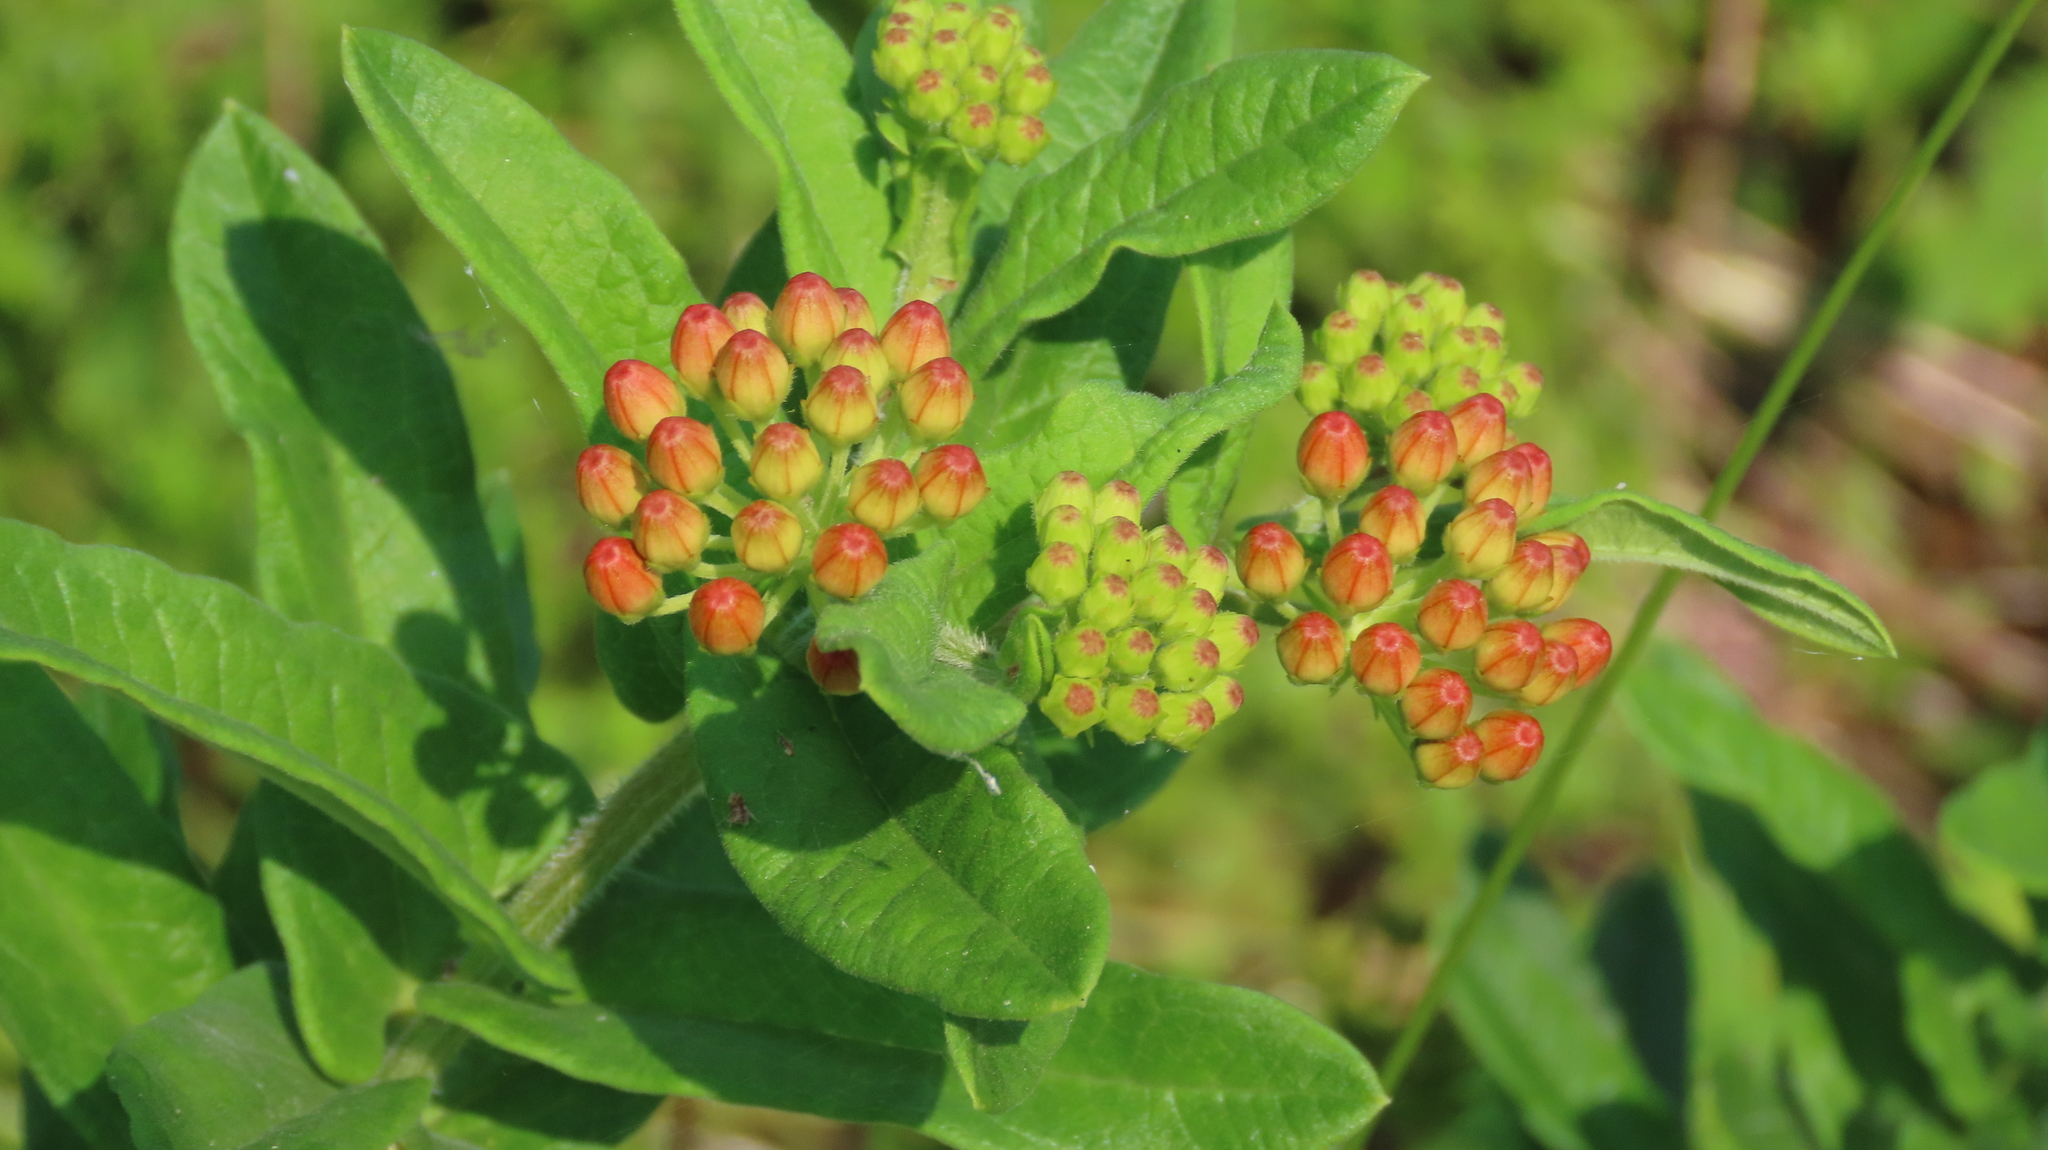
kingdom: Plantae
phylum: Tracheophyta
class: Magnoliopsida
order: Gentianales
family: Apocynaceae
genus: Asclepias
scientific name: Asclepias tuberosa
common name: Butterfly milkweed
